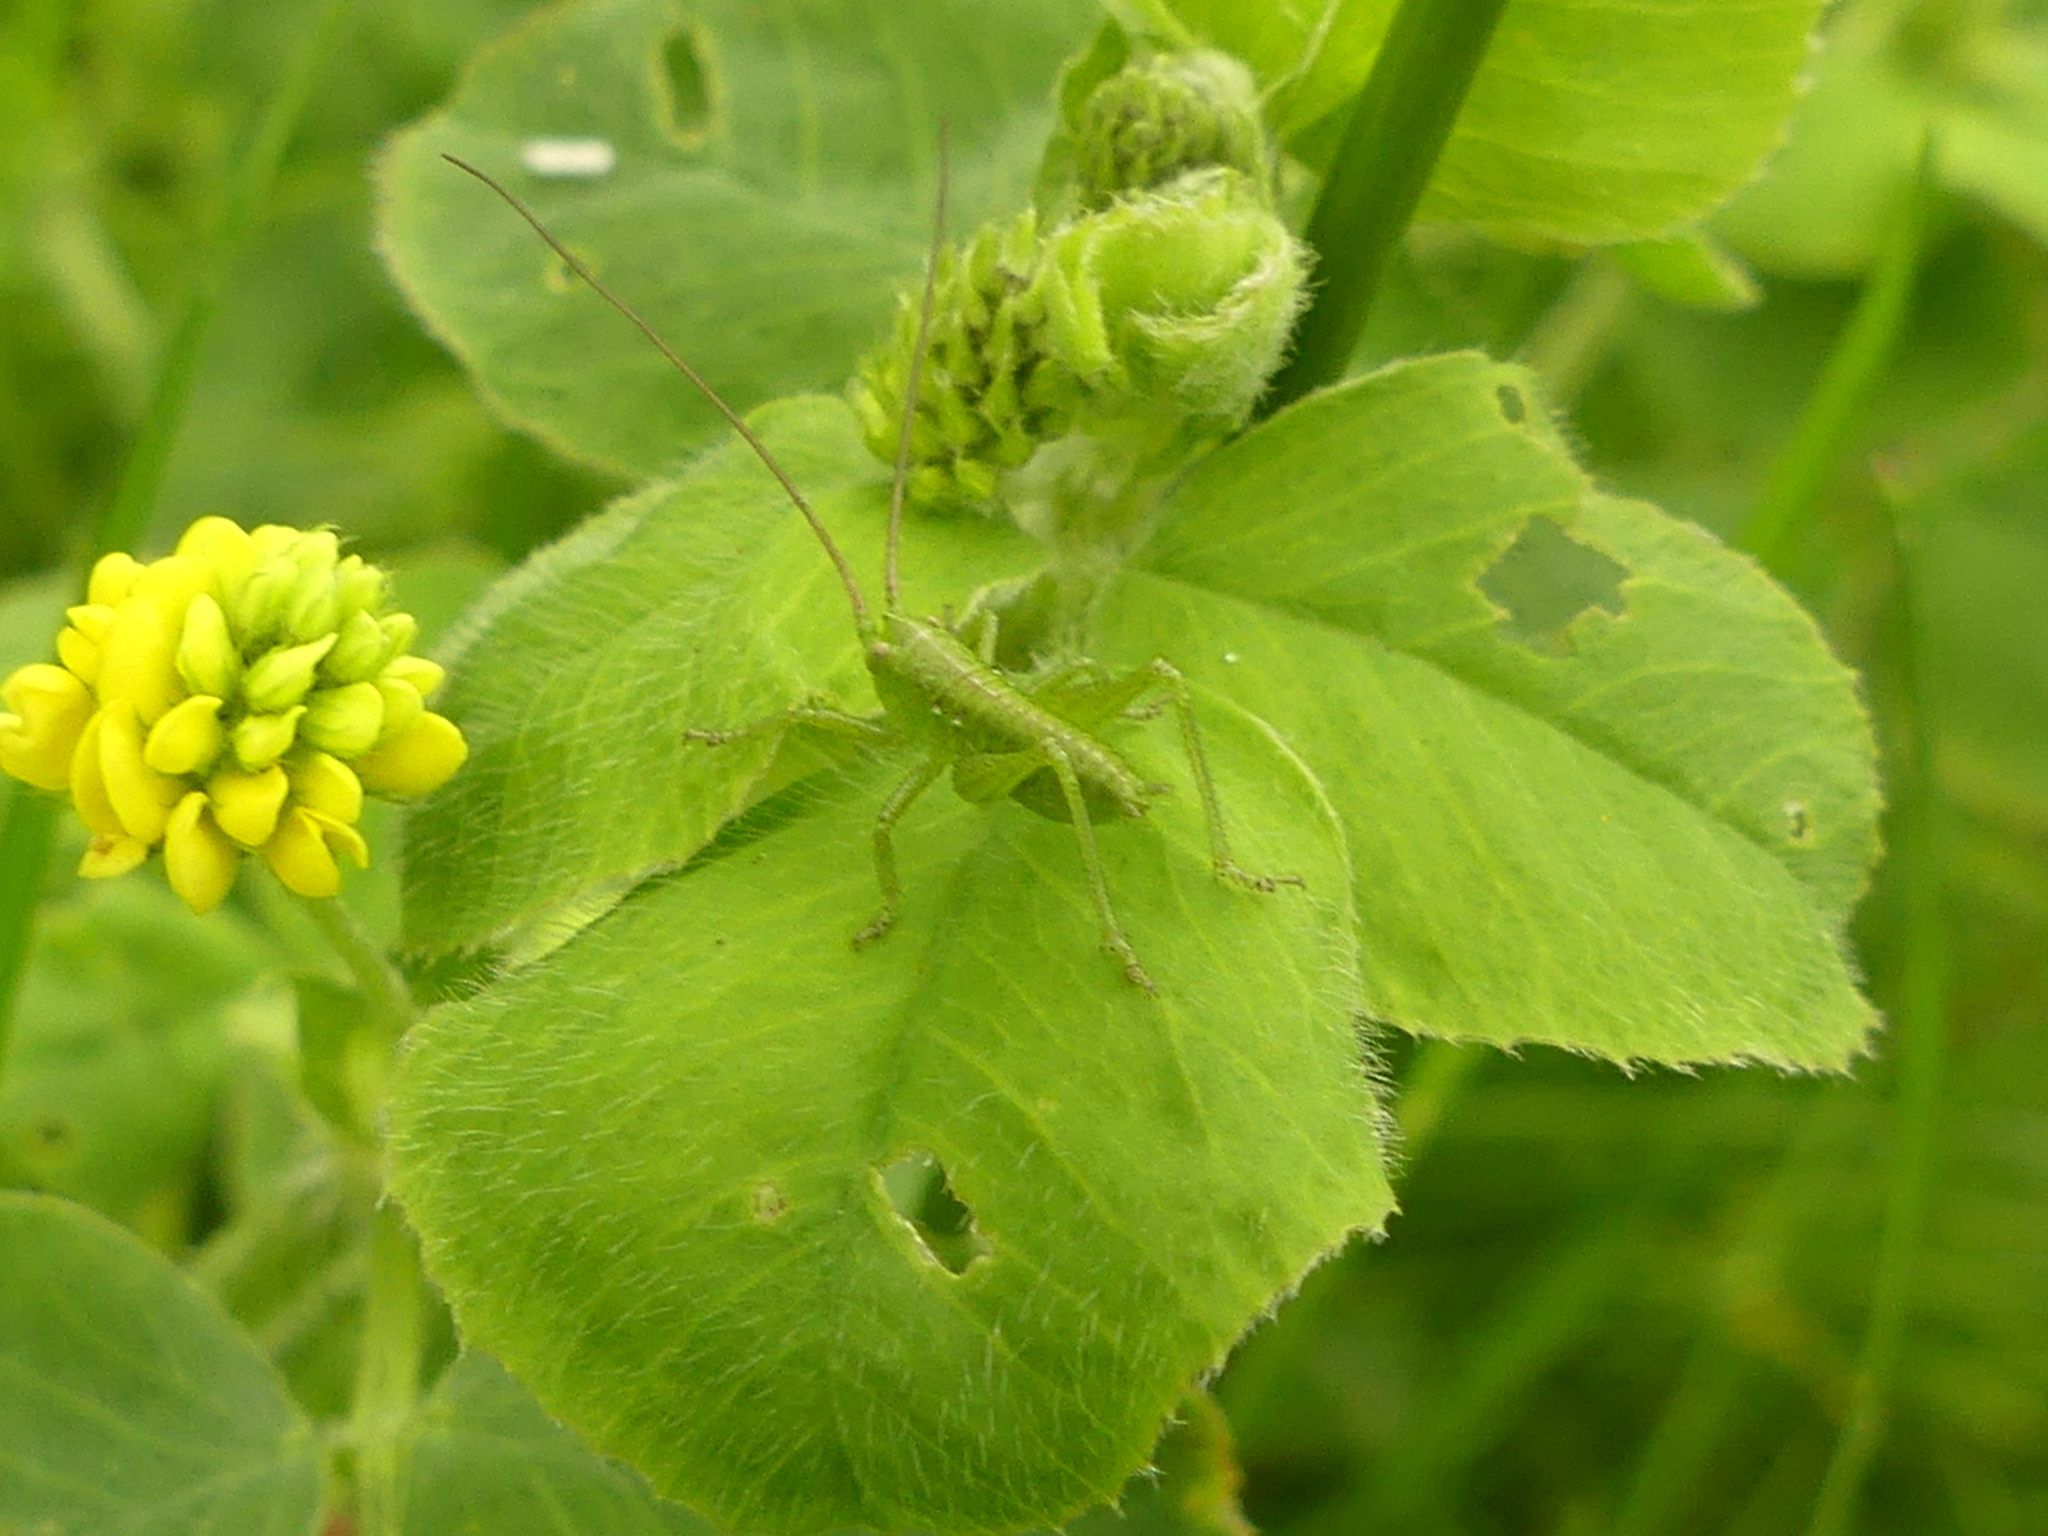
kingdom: Animalia
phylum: Arthropoda
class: Insecta
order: Orthoptera
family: Tettigoniidae
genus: Tettigonia
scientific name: Tettigonia viridissima
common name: Great green bush-cricket
